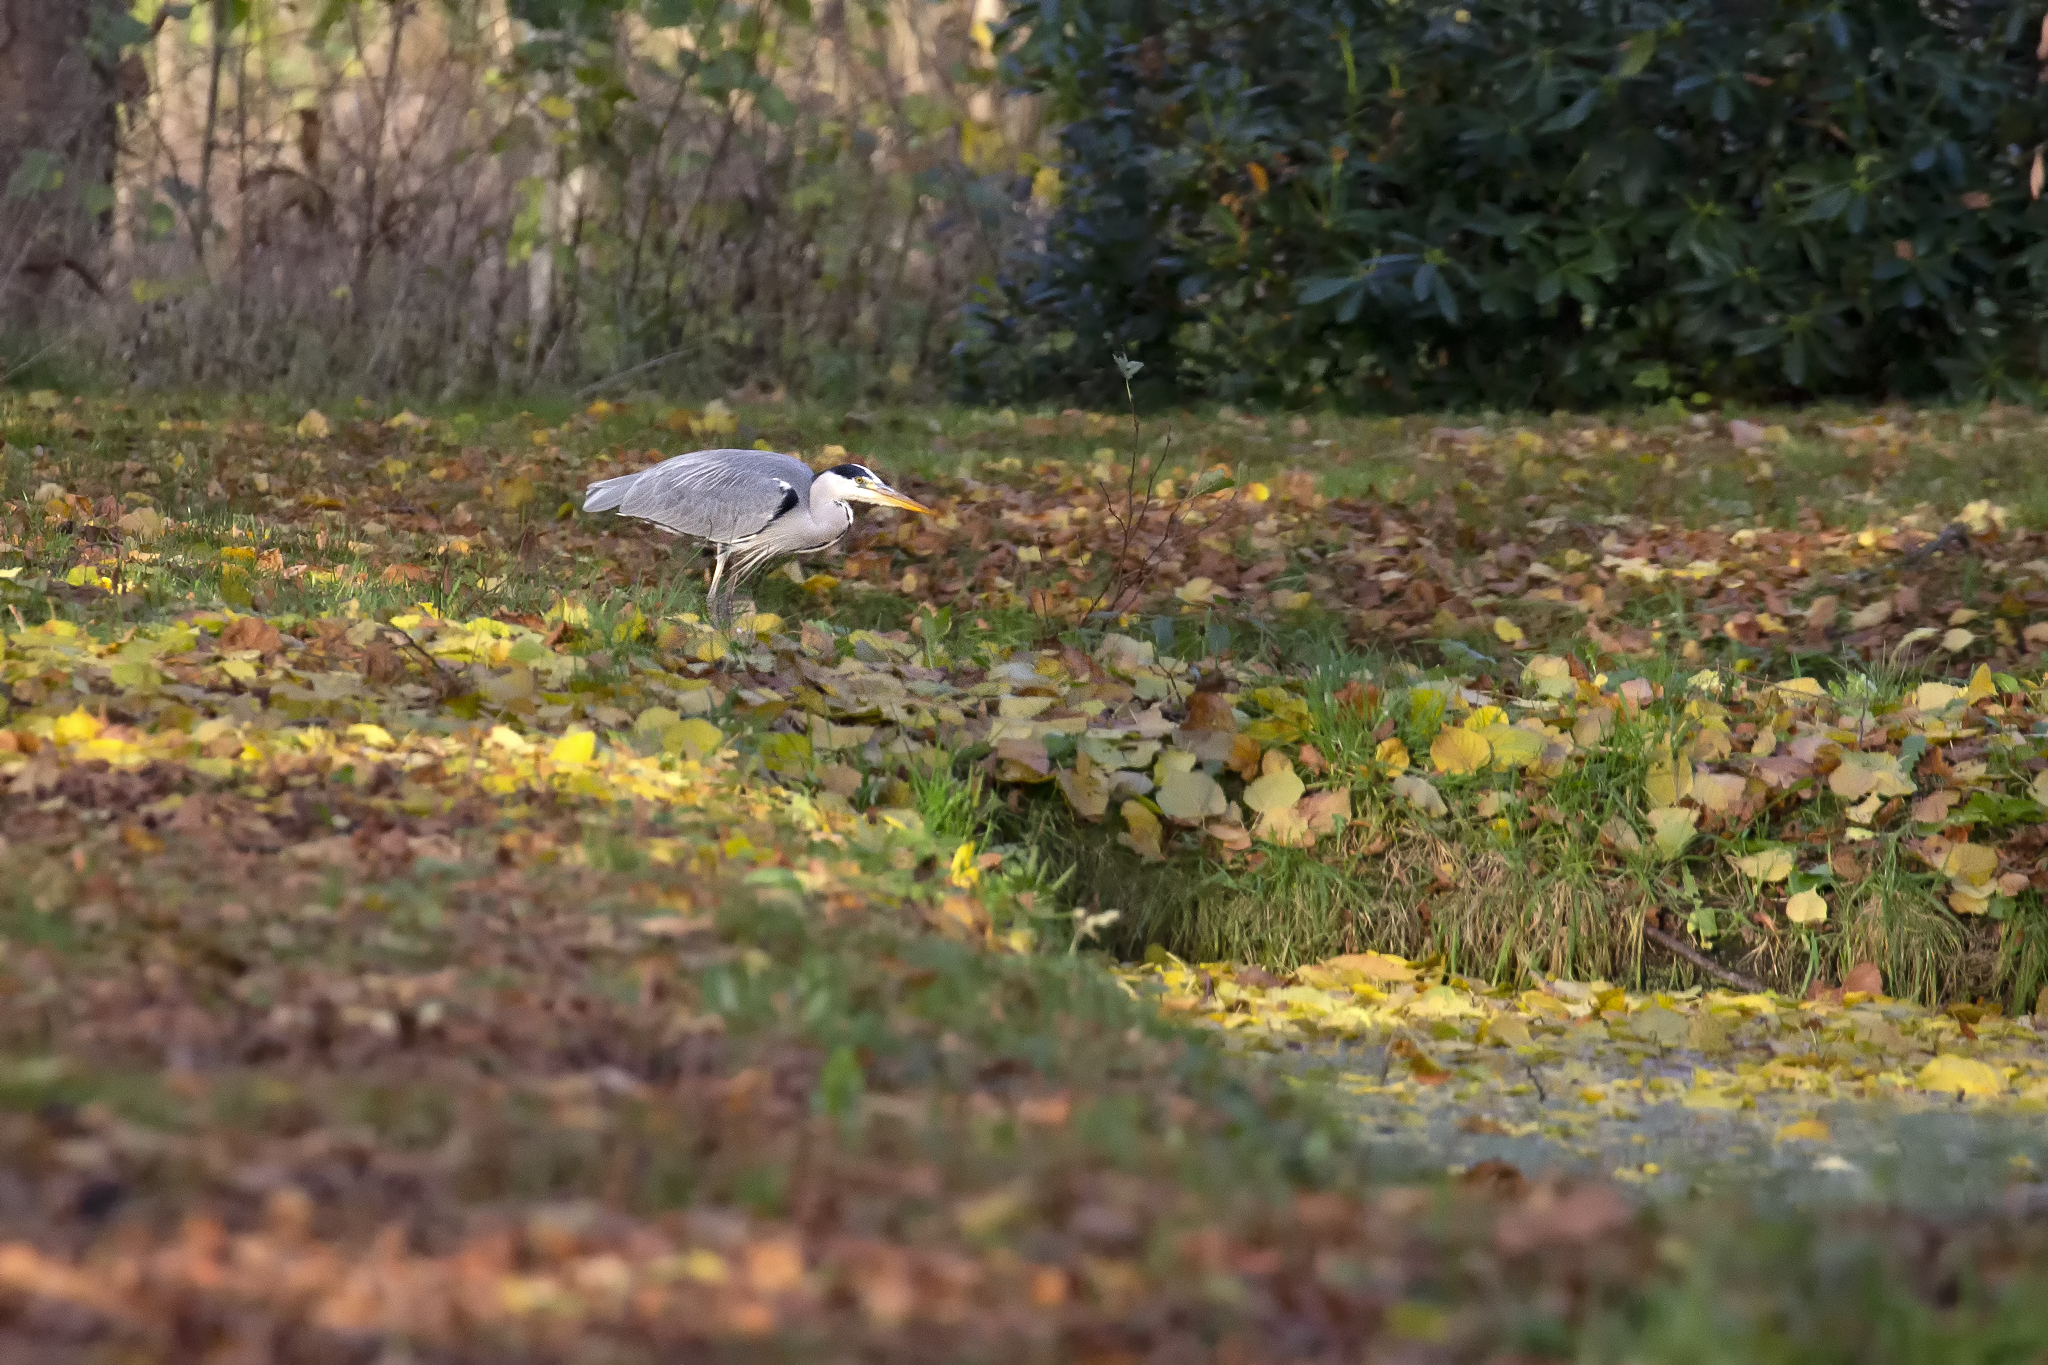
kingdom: Animalia
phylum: Chordata
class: Aves
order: Pelecaniformes
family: Ardeidae
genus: Ardea
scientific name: Ardea cinerea
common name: Grey heron
